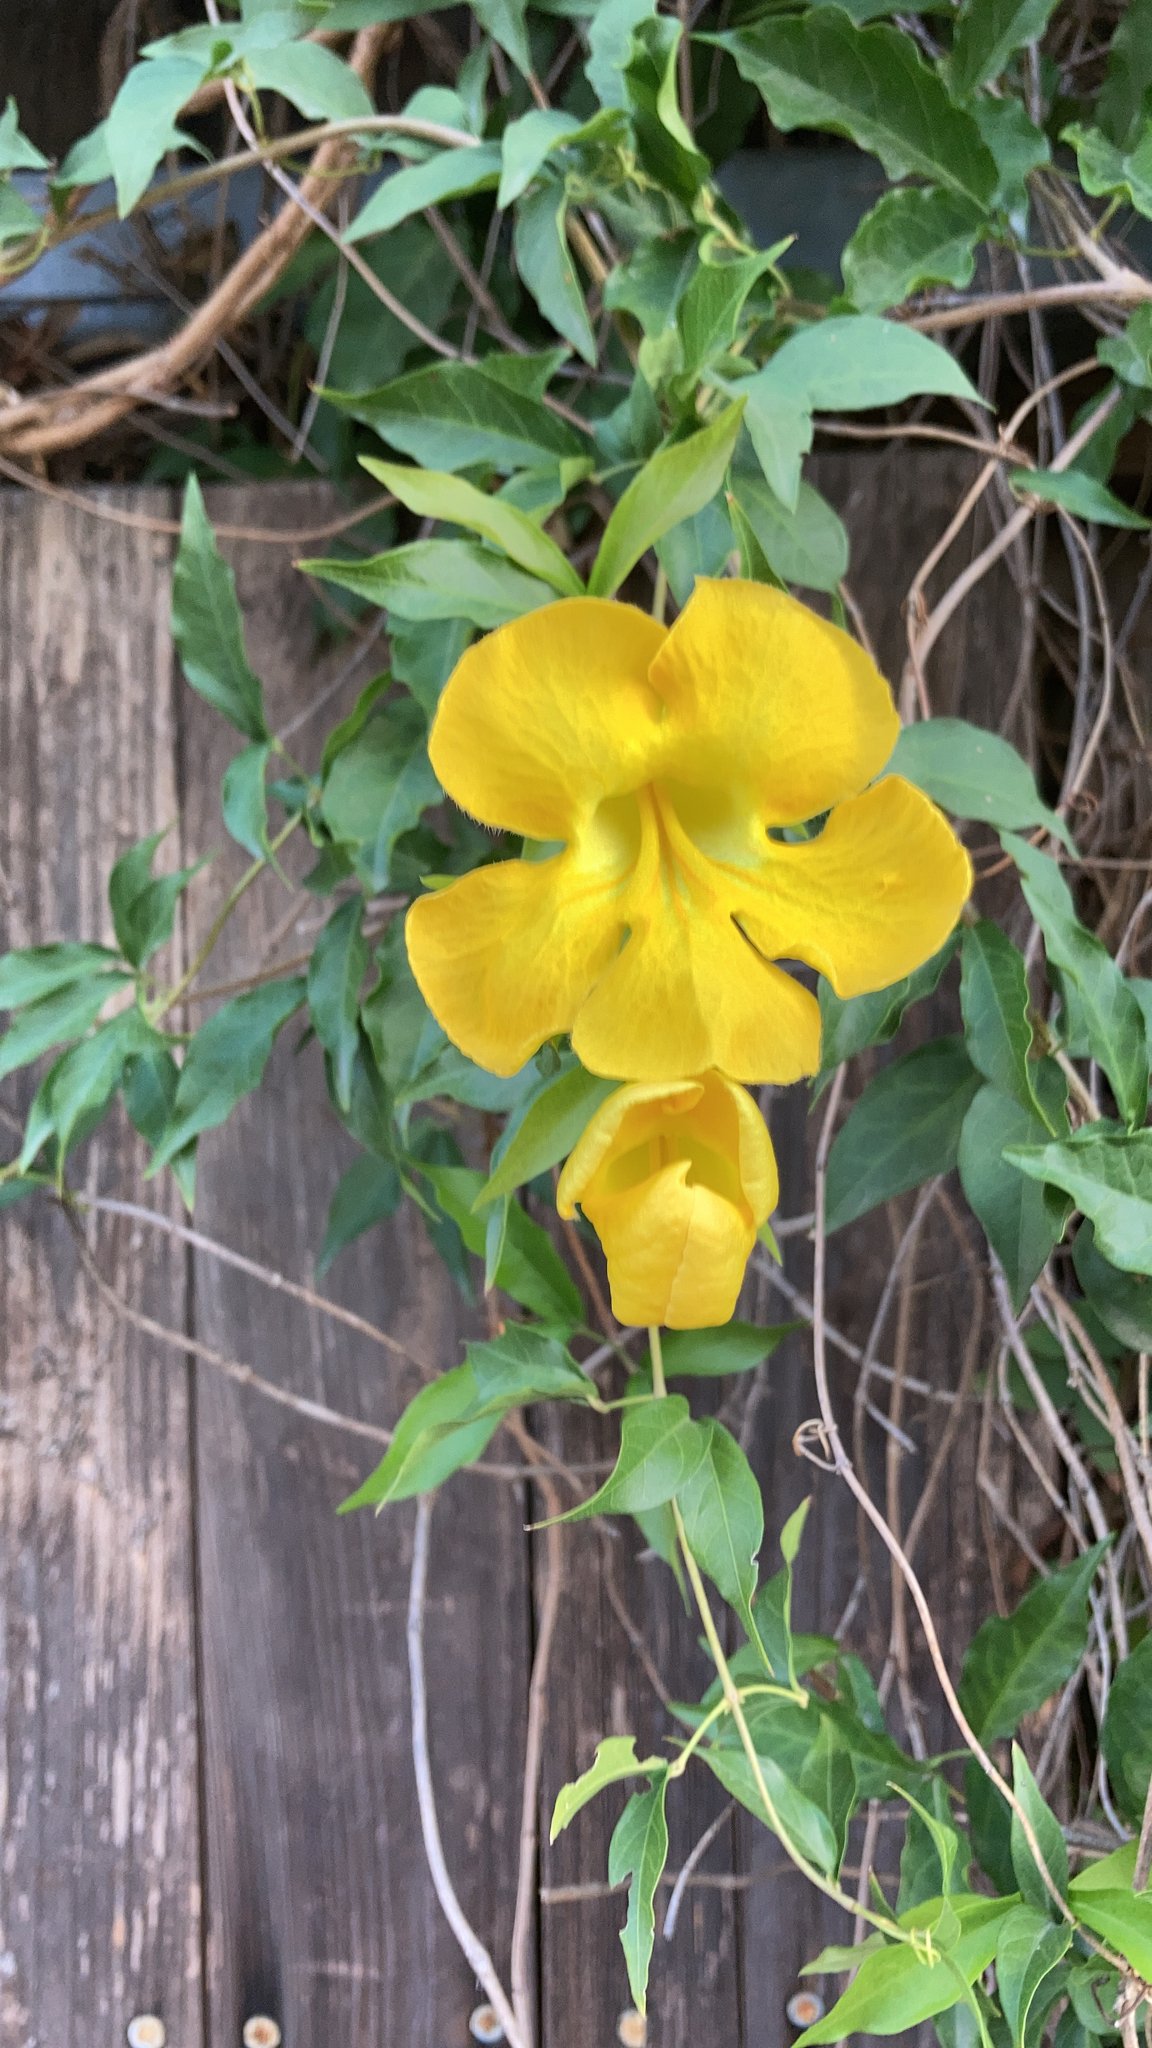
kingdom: Plantae
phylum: Tracheophyta
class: Magnoliopsida
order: Lamiales
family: Bignoniaceae
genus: Dolichandra
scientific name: Dolichandra unguis-cati
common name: Catclaw vine
